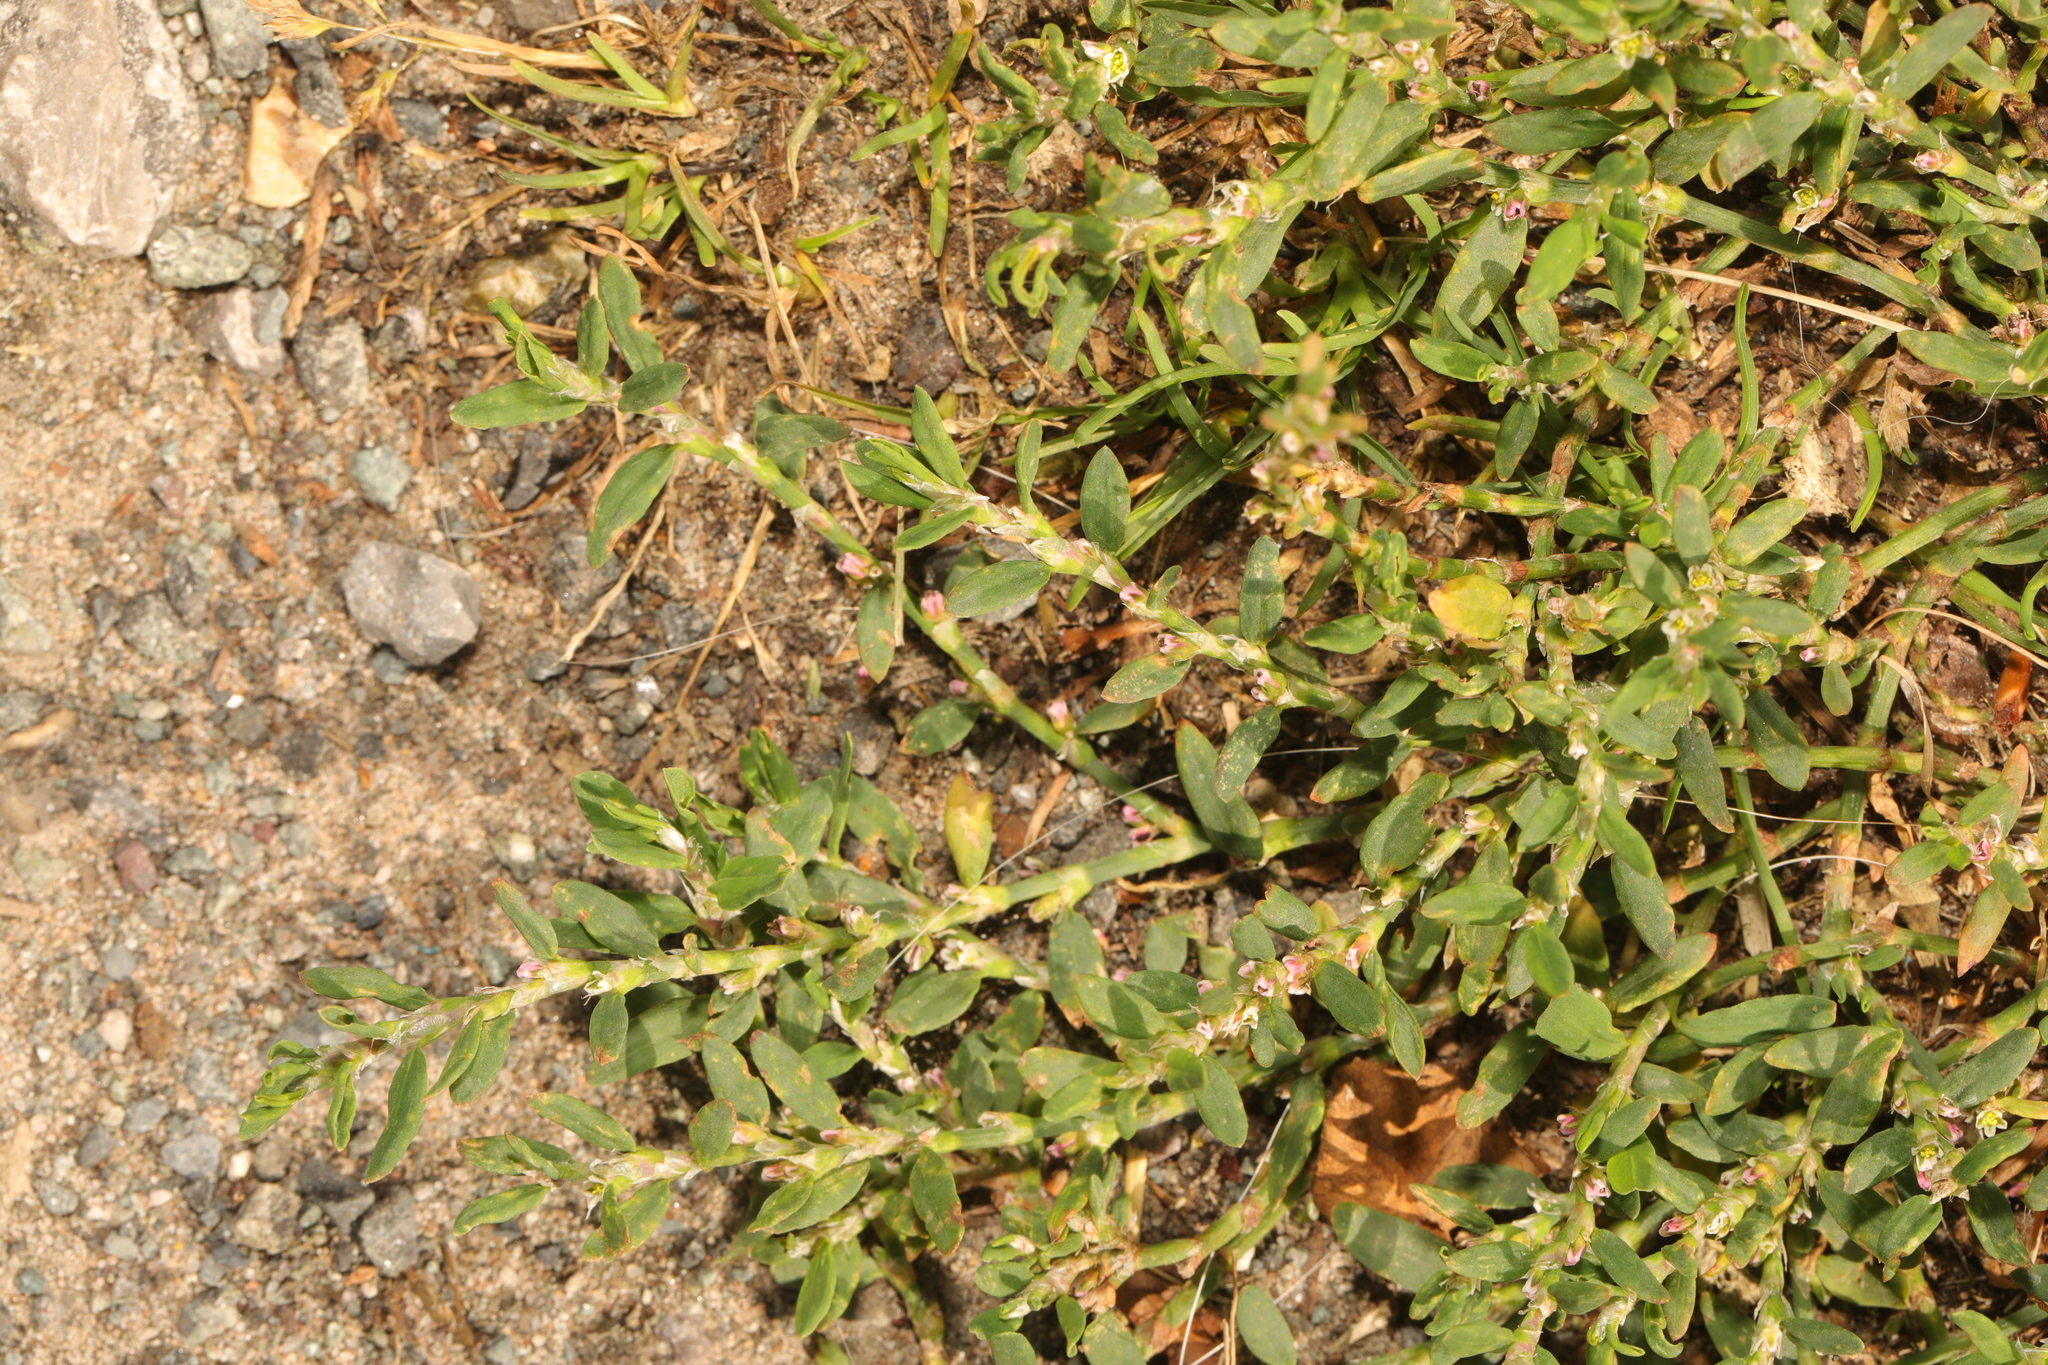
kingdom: Plantae
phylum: Tracheophyta
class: Magnoliopsida
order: Caryophyllales
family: Polygonaceae
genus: Polygonum
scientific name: Polygonum arenastrum
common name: Equal-leaved knotgrass
